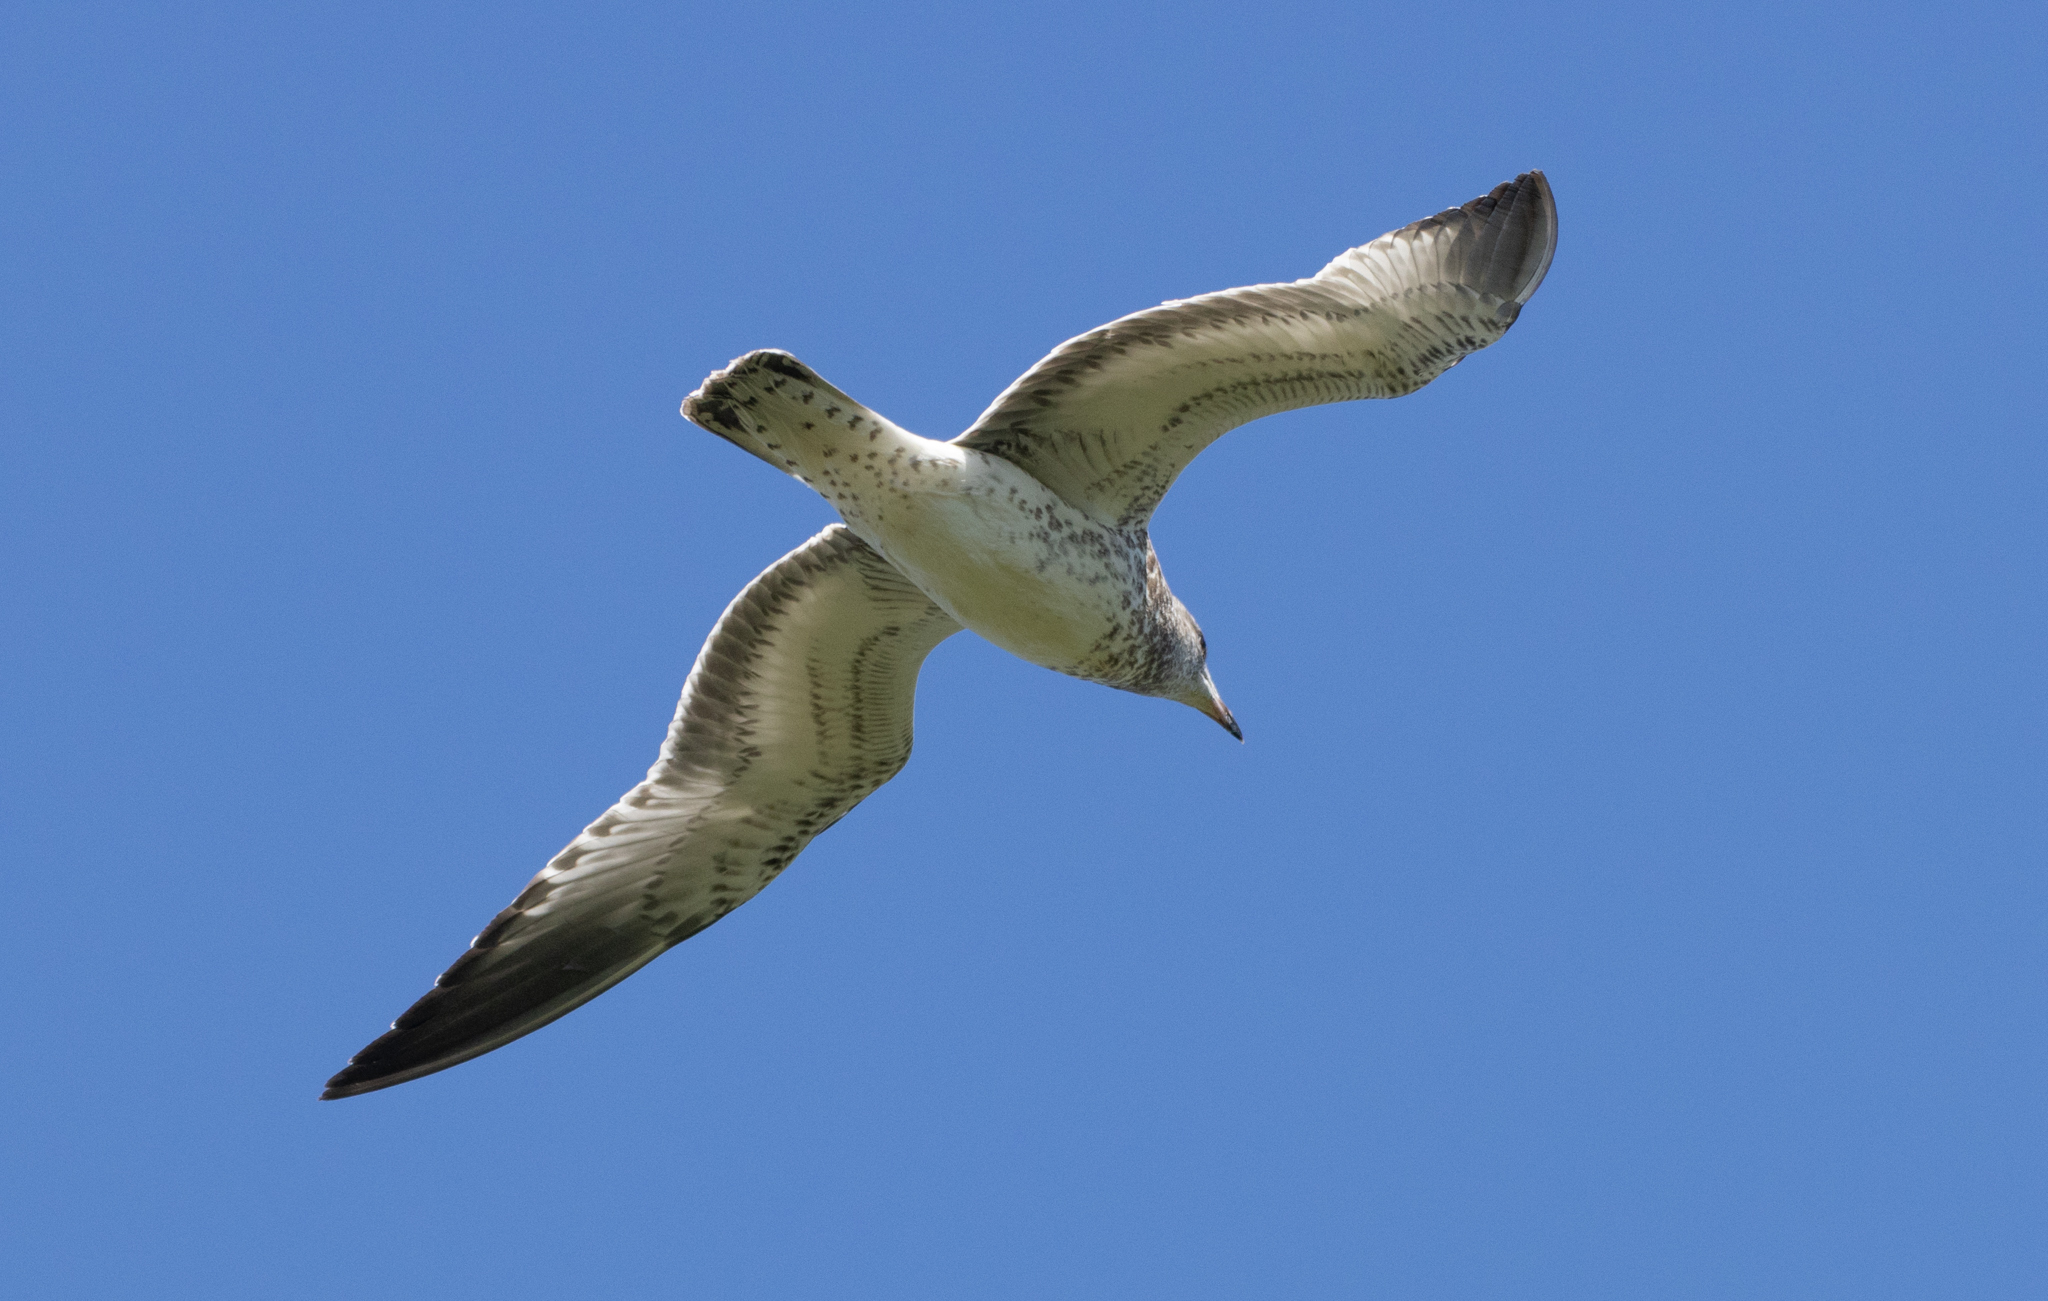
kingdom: Animalia
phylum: Chordata
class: Aves
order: Charadriiformes
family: Laridae
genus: Larus
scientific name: Larus delawarensis
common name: Ring-billed gull
